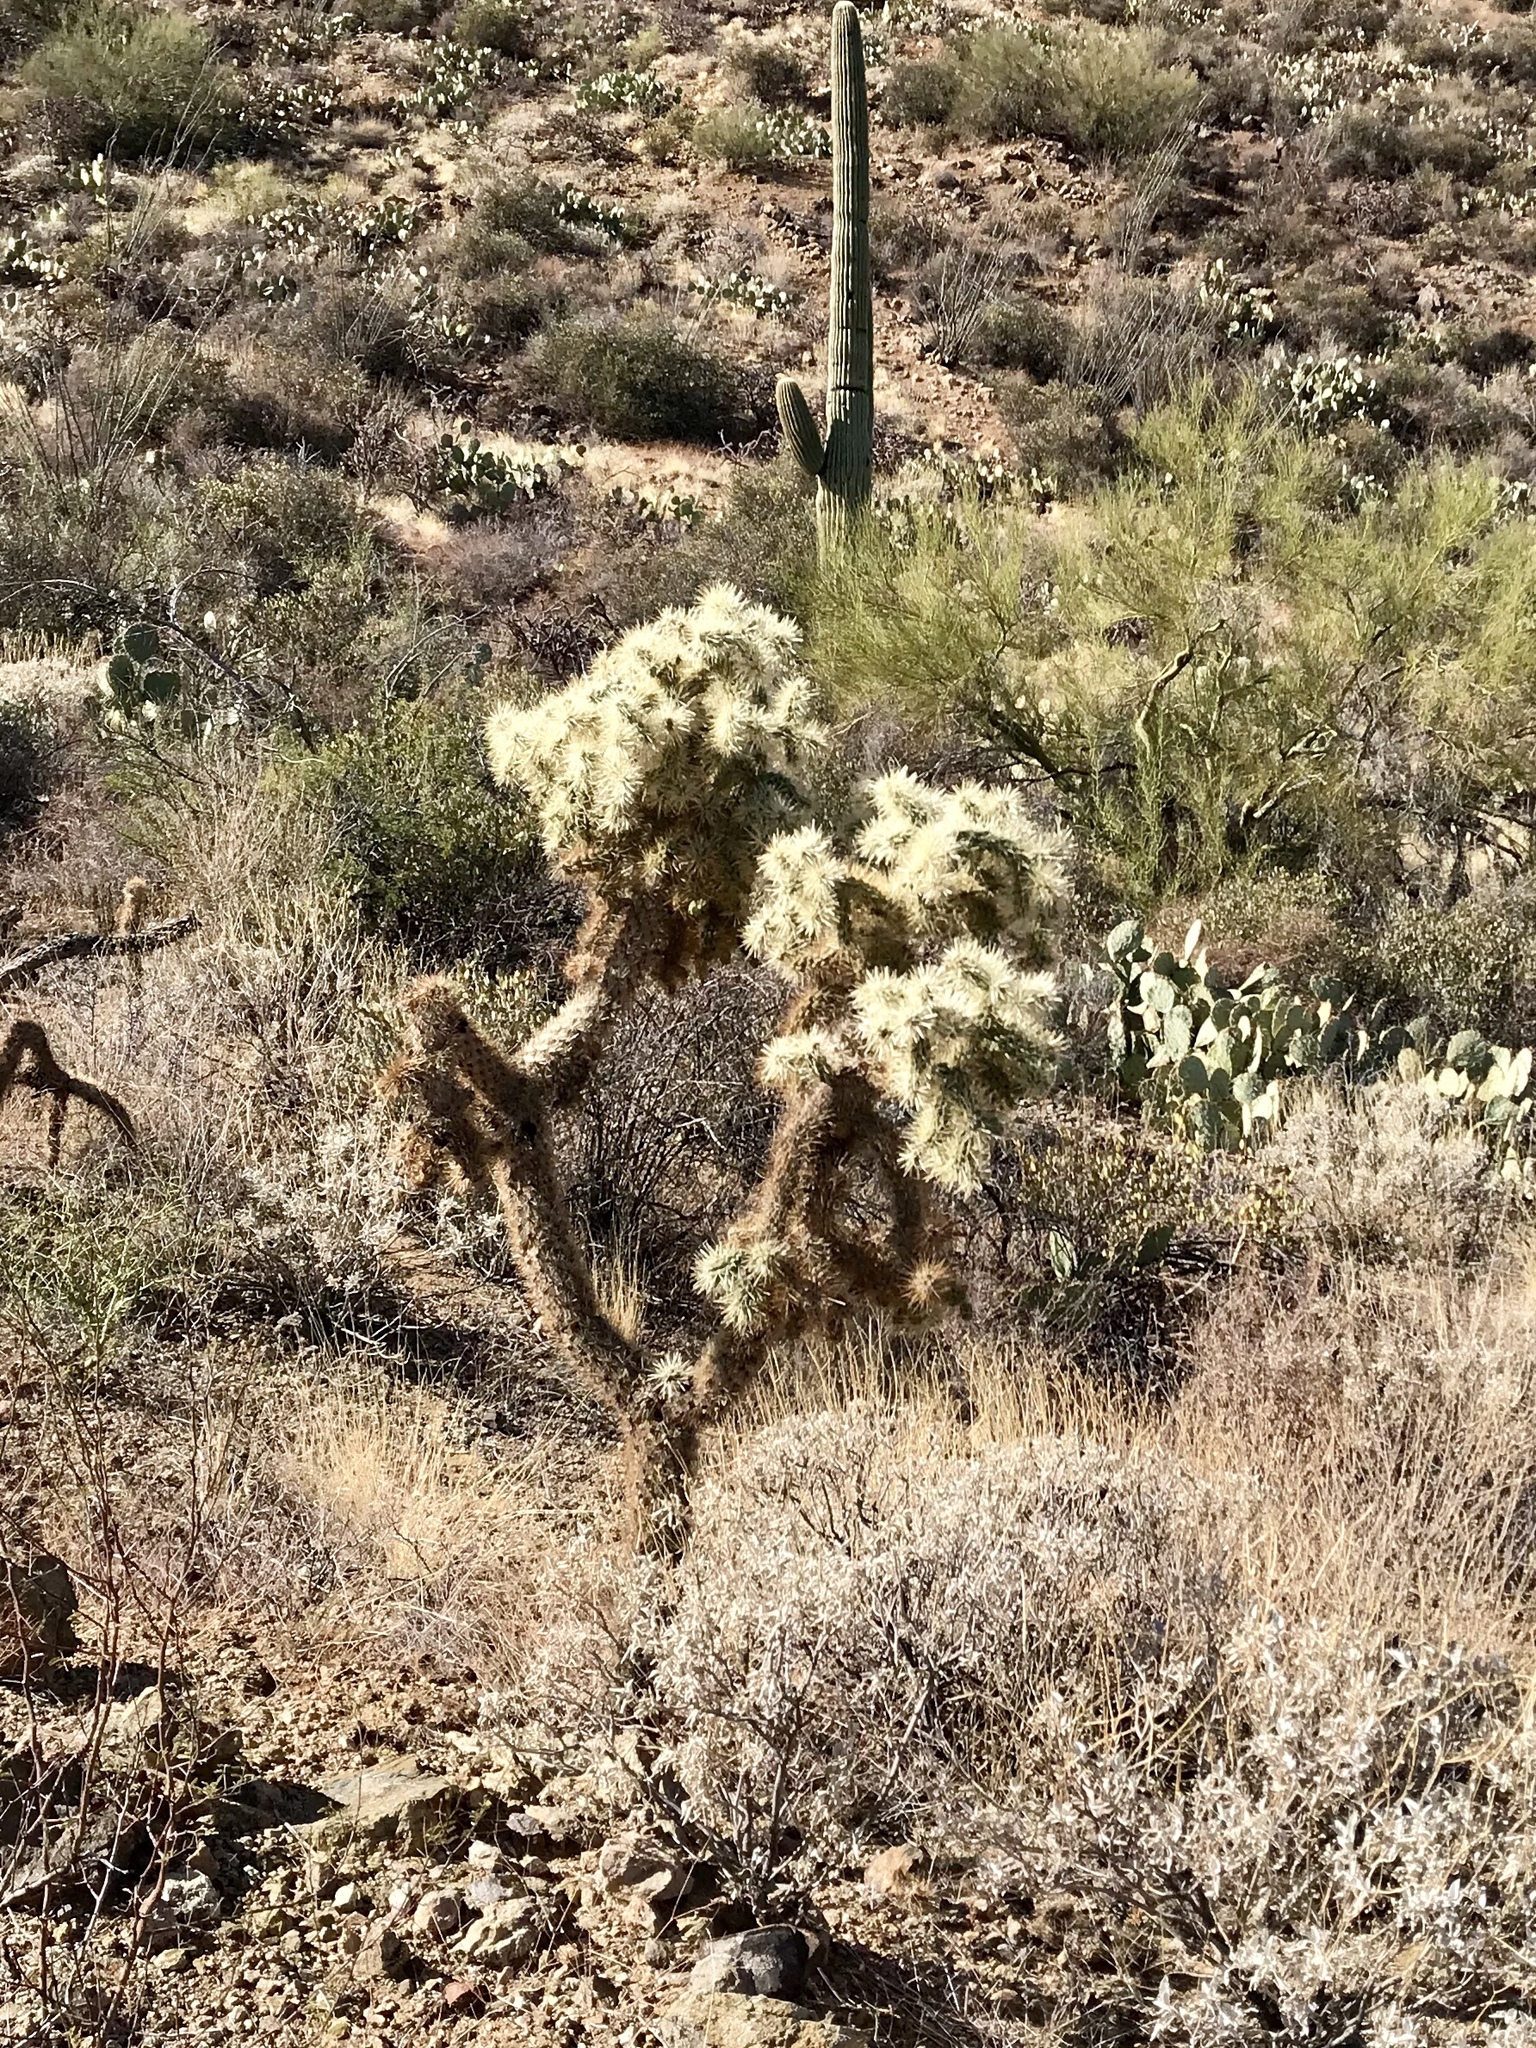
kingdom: Plantae
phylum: Tracheophyta
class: Magnoliopsida
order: Caryophyllales
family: Cactaceae
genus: Cylindropuntia
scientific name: Cylindropuntia fulgida
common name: Jumping cholla
